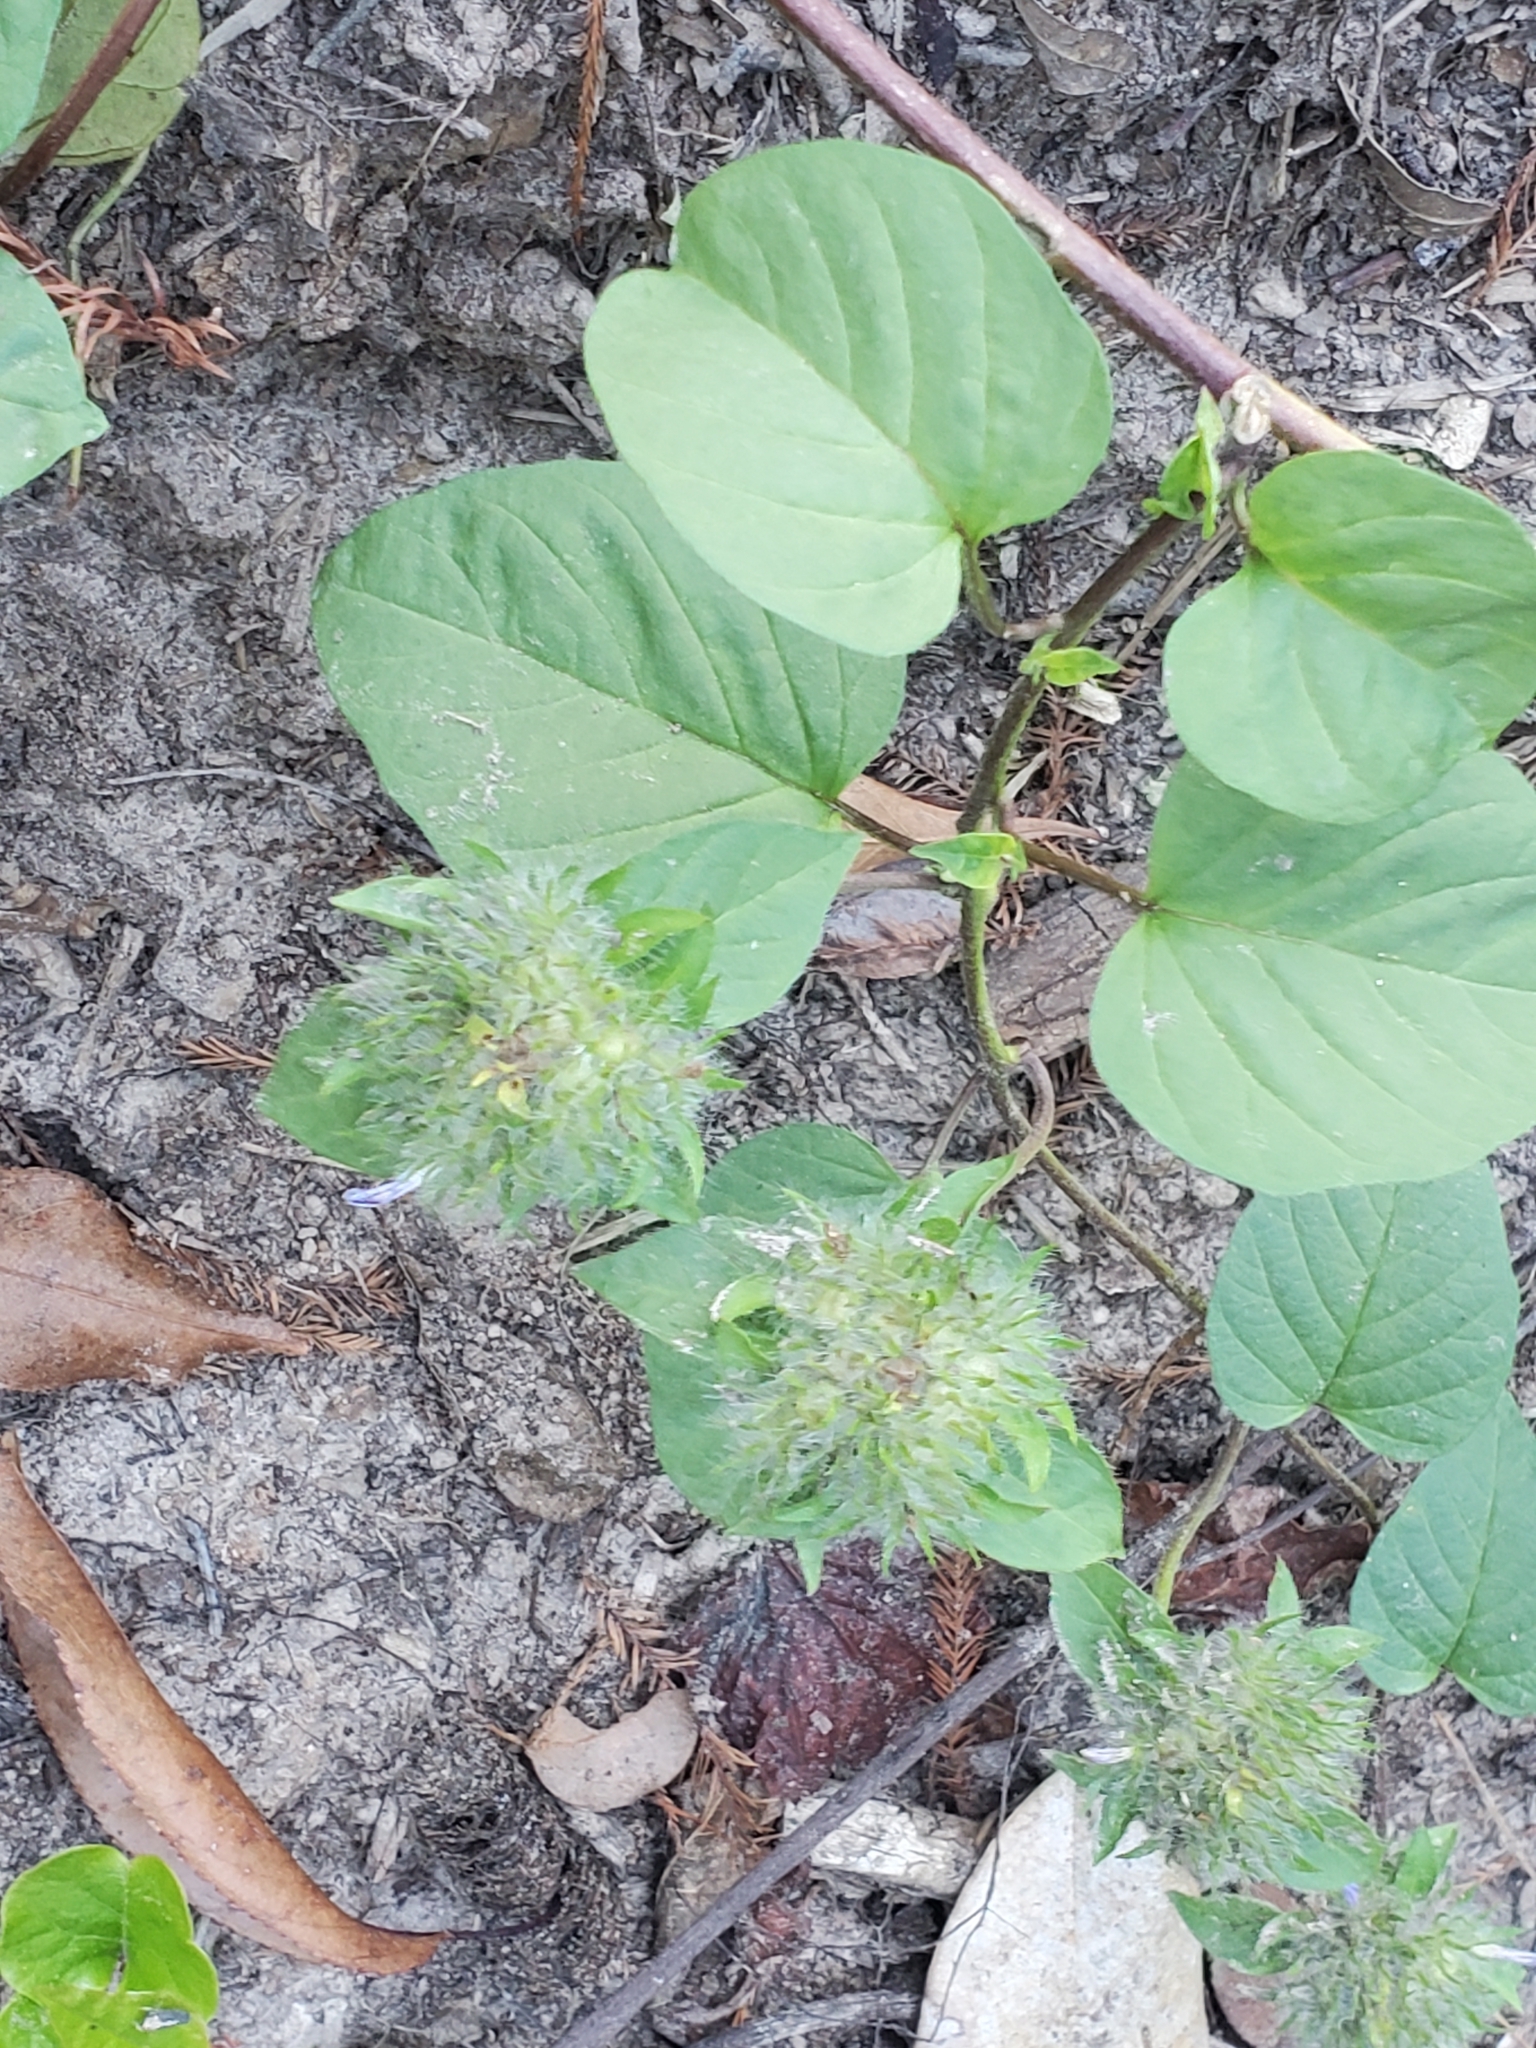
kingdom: Plantae
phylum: Tracheophyta
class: Magnoliopsida
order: Solanales
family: Convolvulaceae
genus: Jacquemontia
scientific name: Jacquemontia tamnifolia
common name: Hairy clustervine
